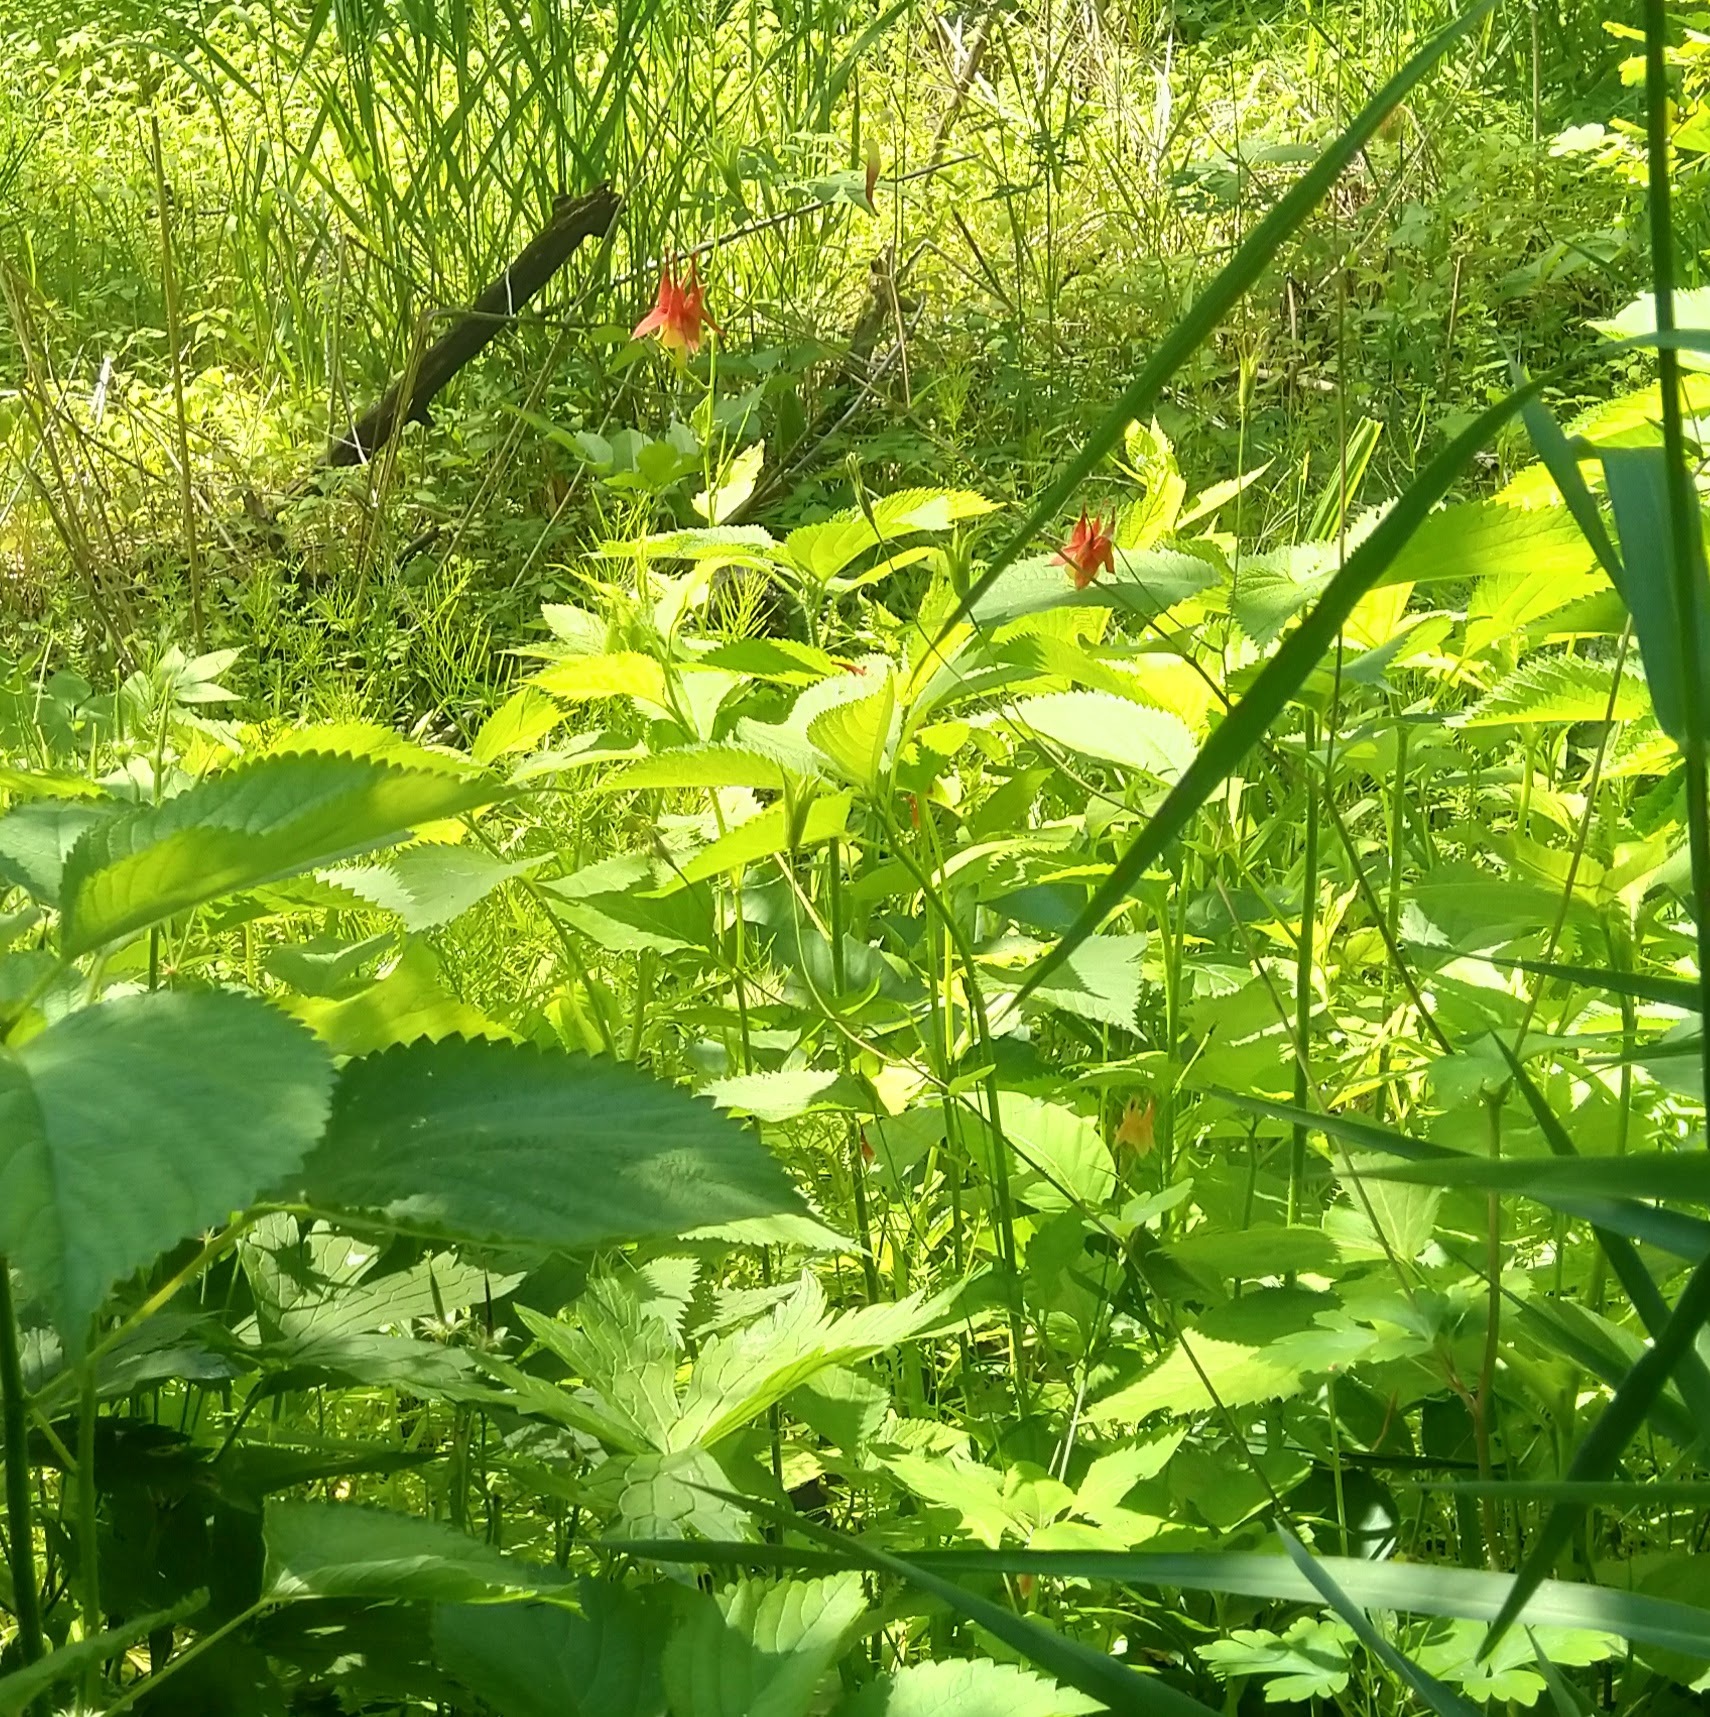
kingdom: Plantae
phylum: Tracheophyta
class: Magnoliopsida
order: Ranunculales
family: Ranunculaceae
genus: Aquilegia
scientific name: Aquilegia canadensis
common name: American columbine
